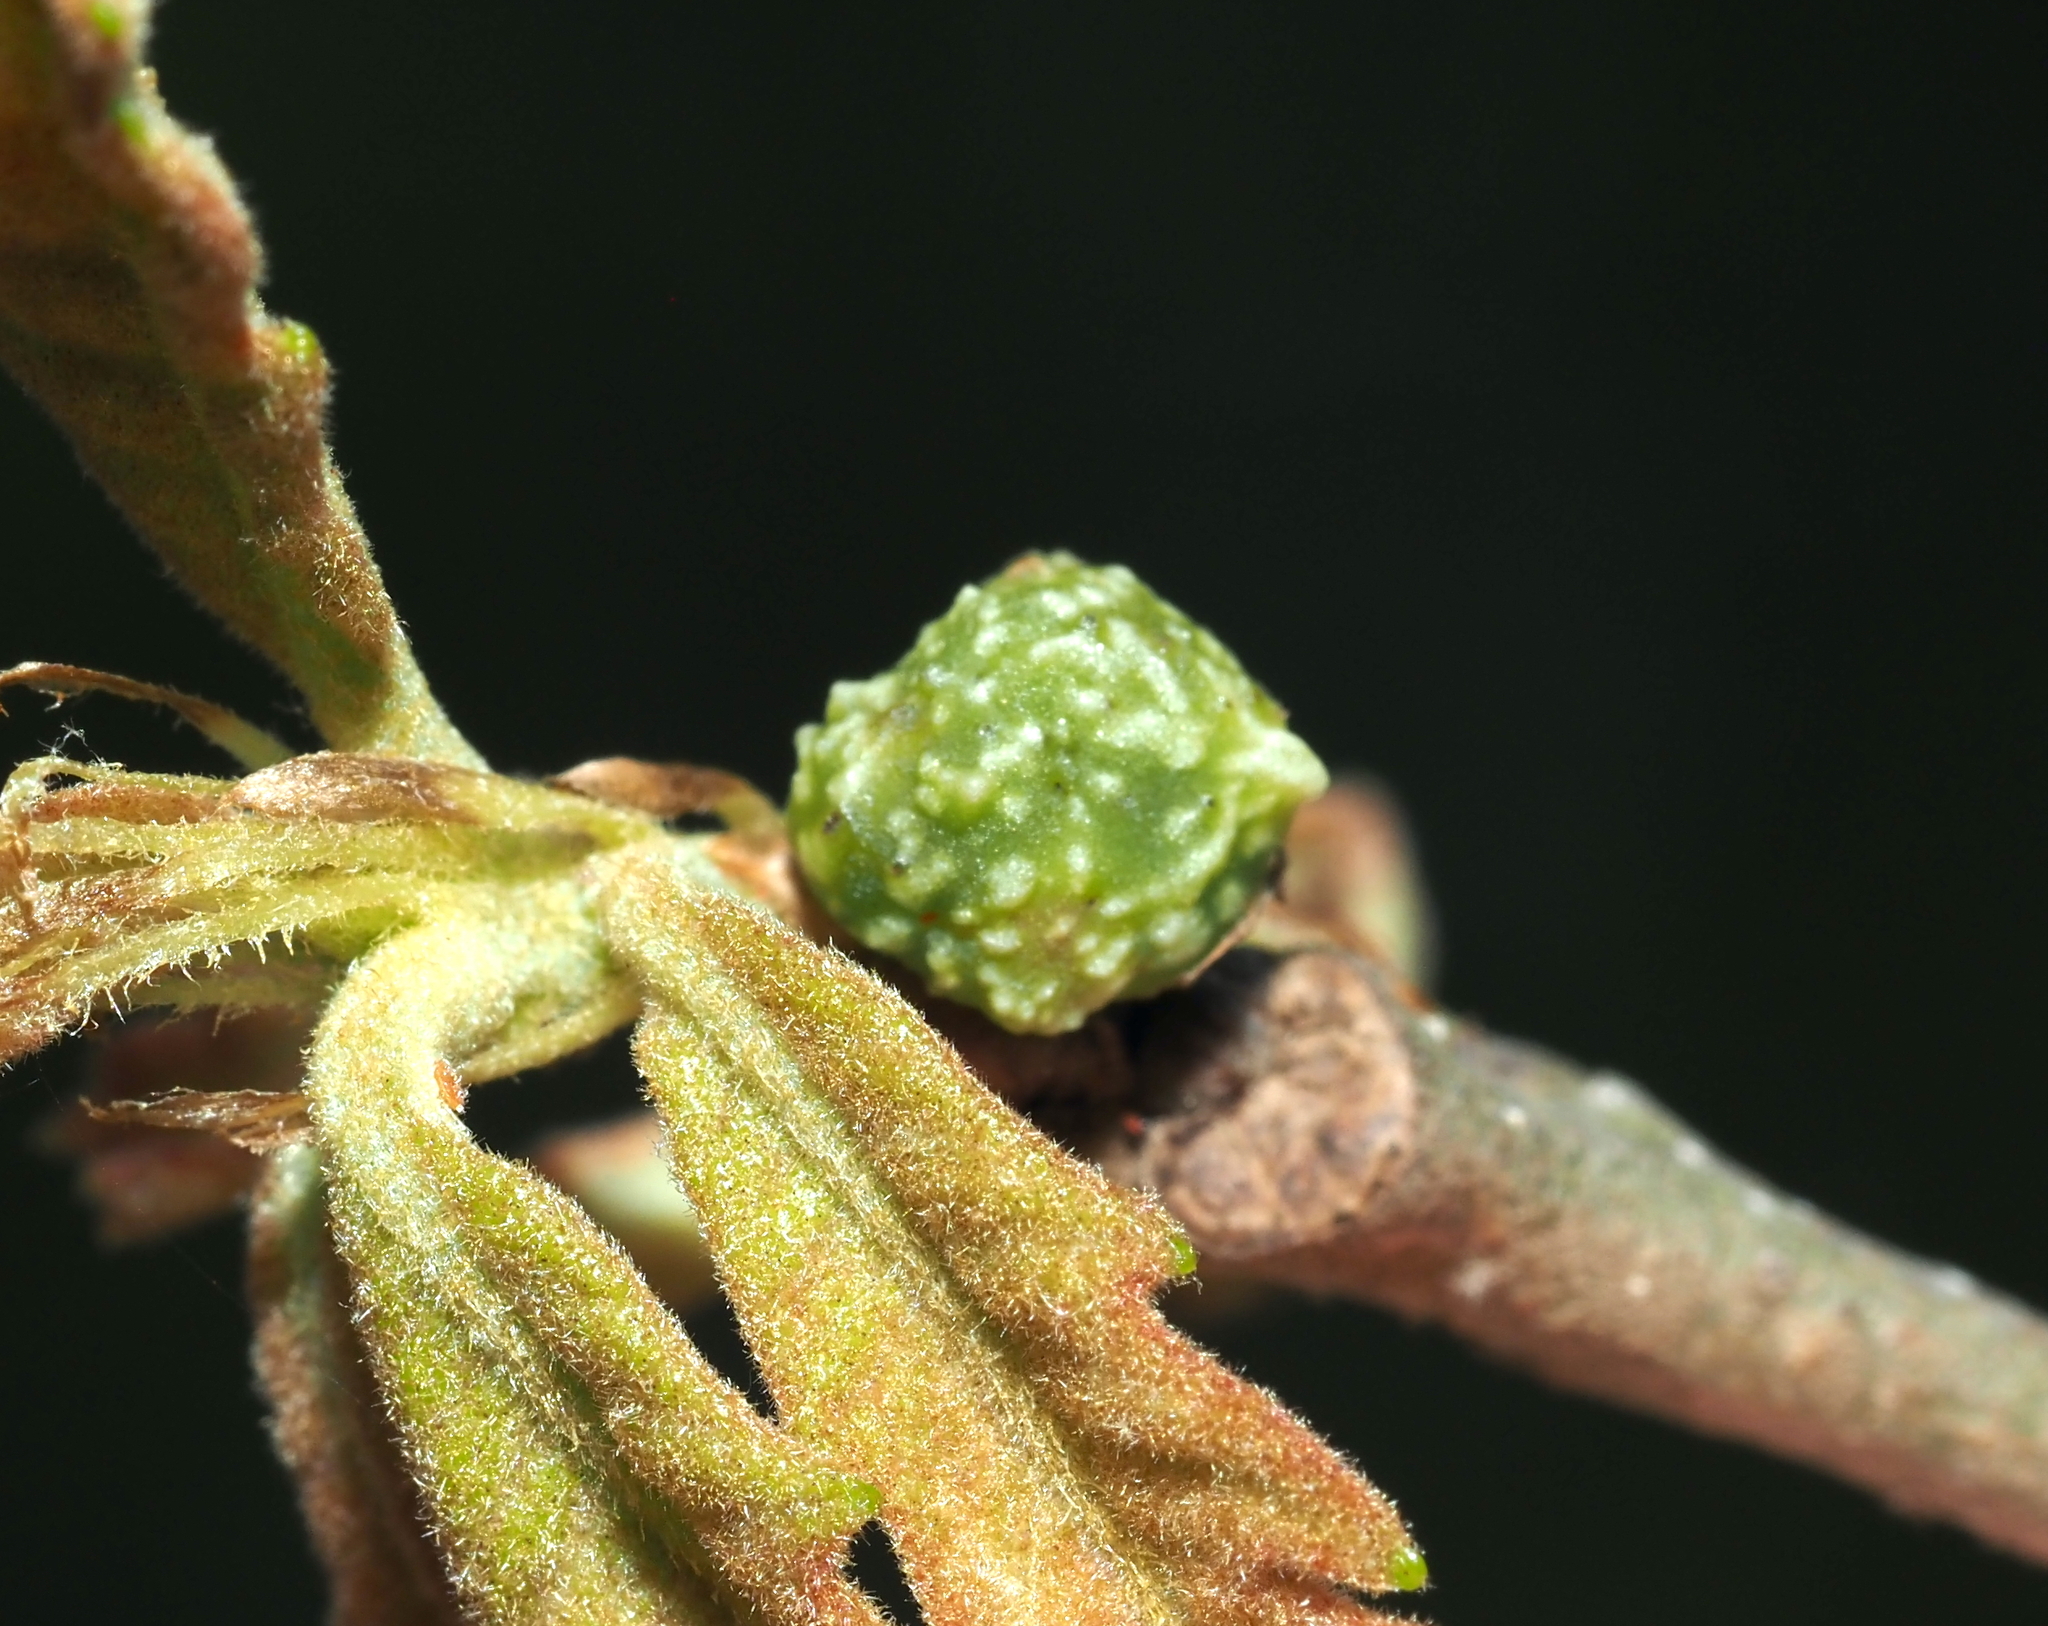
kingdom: Animalia
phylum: Arthropoda
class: Insecta
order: Hymenoptera
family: Cynipidae
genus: Andricus
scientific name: Andricus
